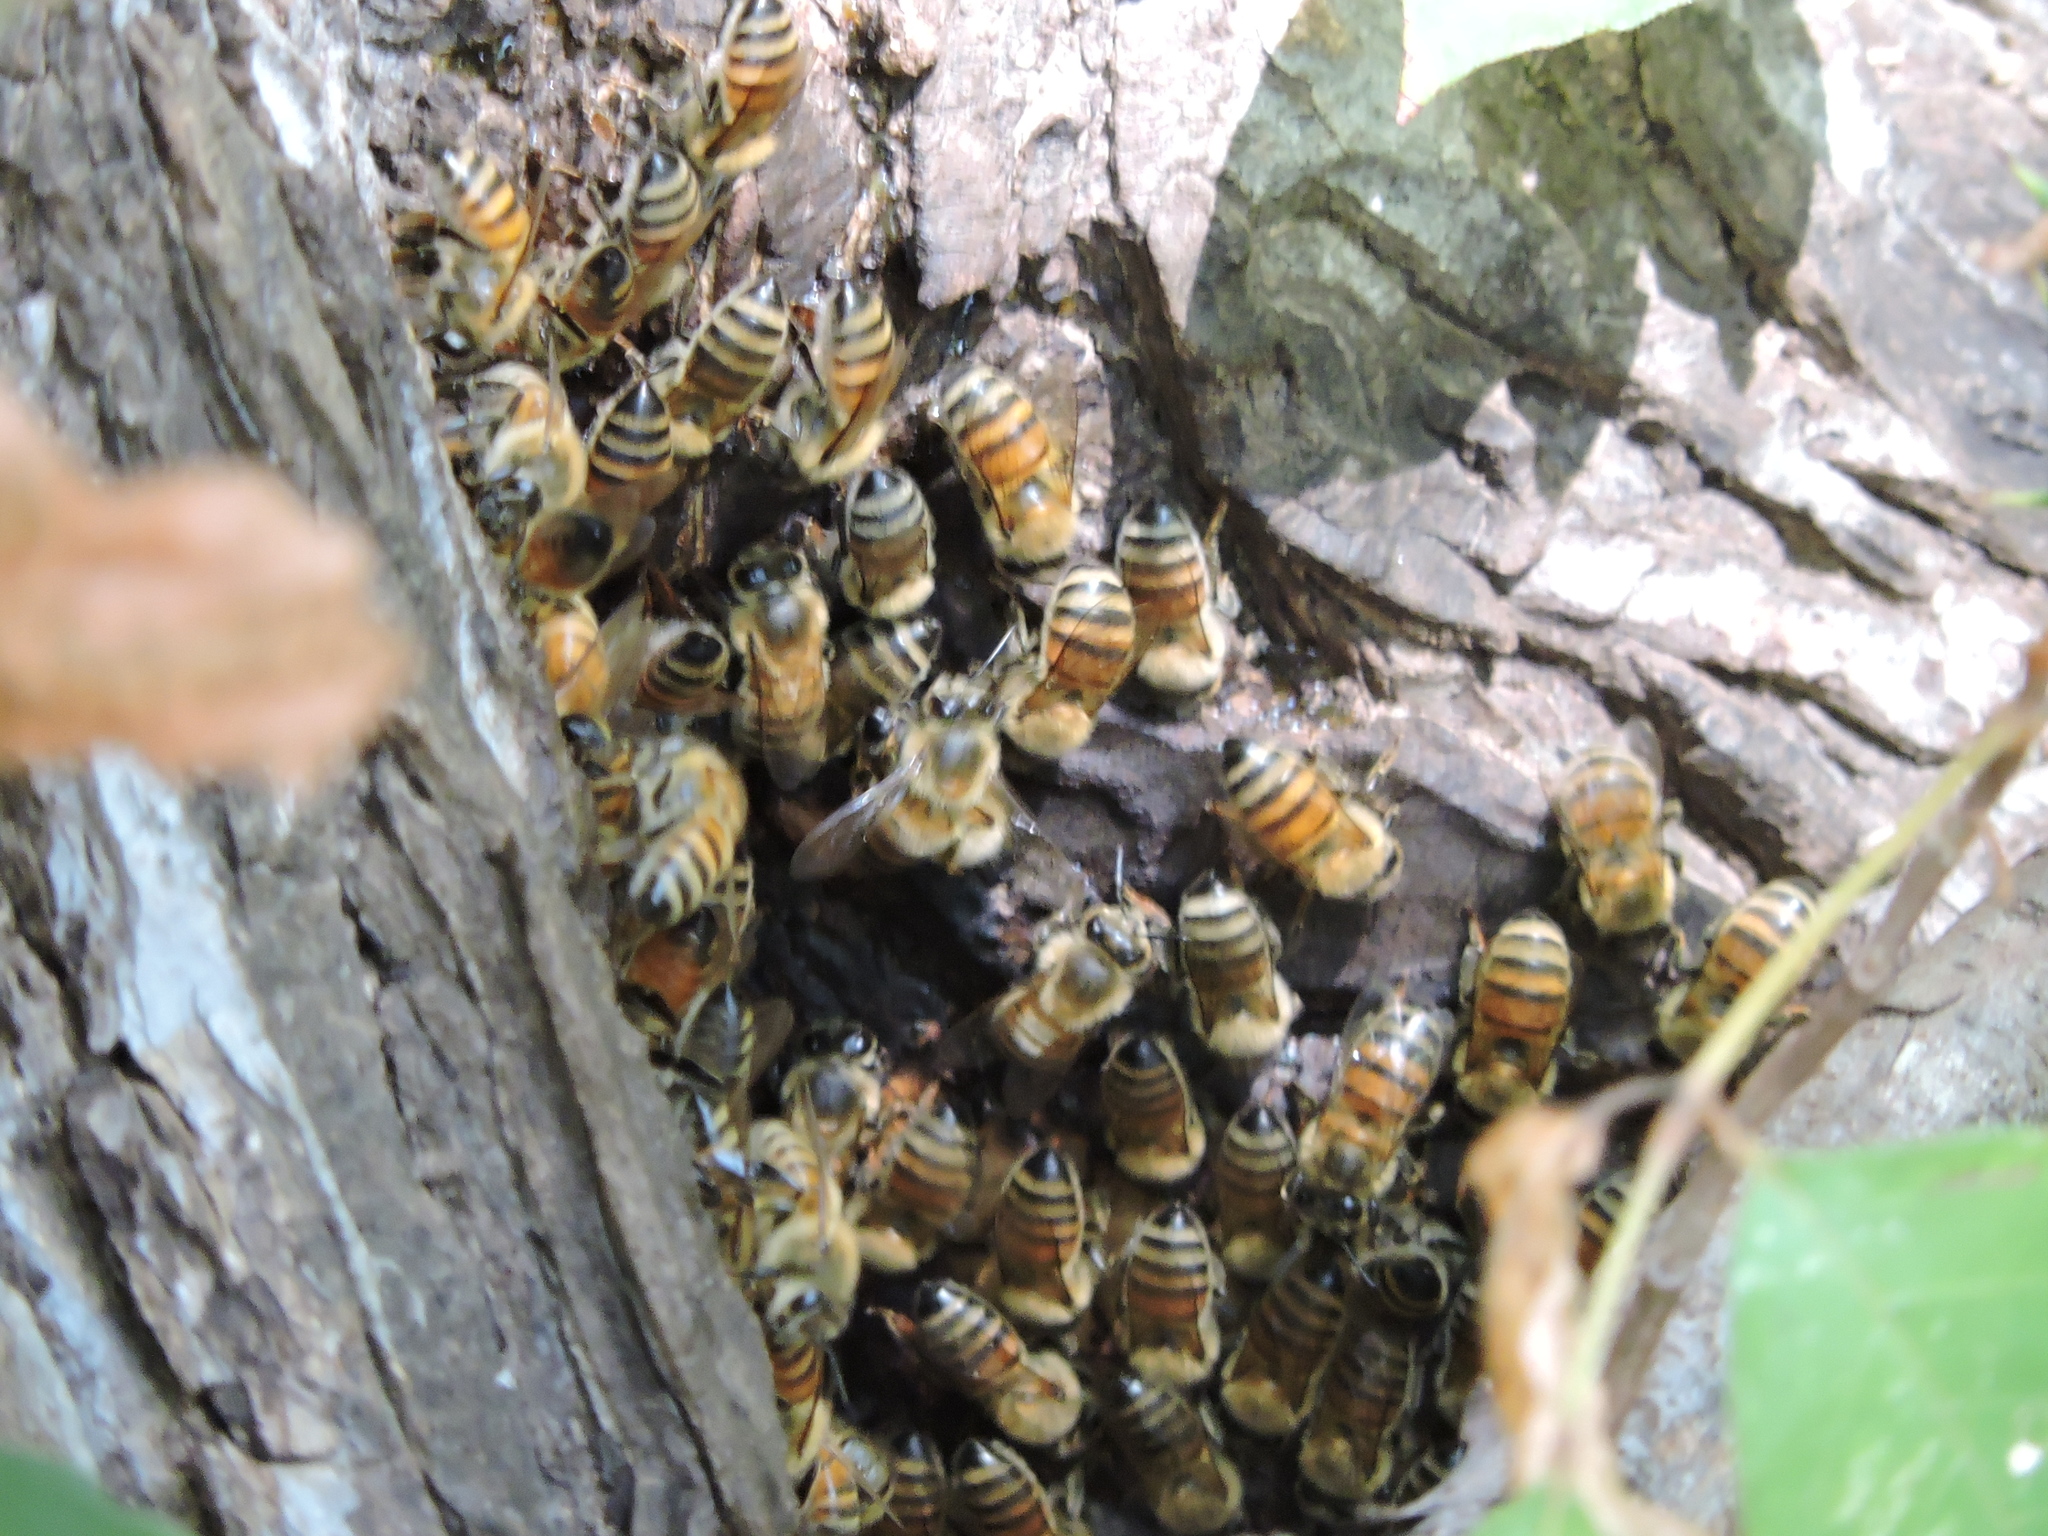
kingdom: Animalia
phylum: Arthropoda
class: Insecta
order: Hymenoptera
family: Apidae
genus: Apis
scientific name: Apis mellifera
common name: Honey bee
